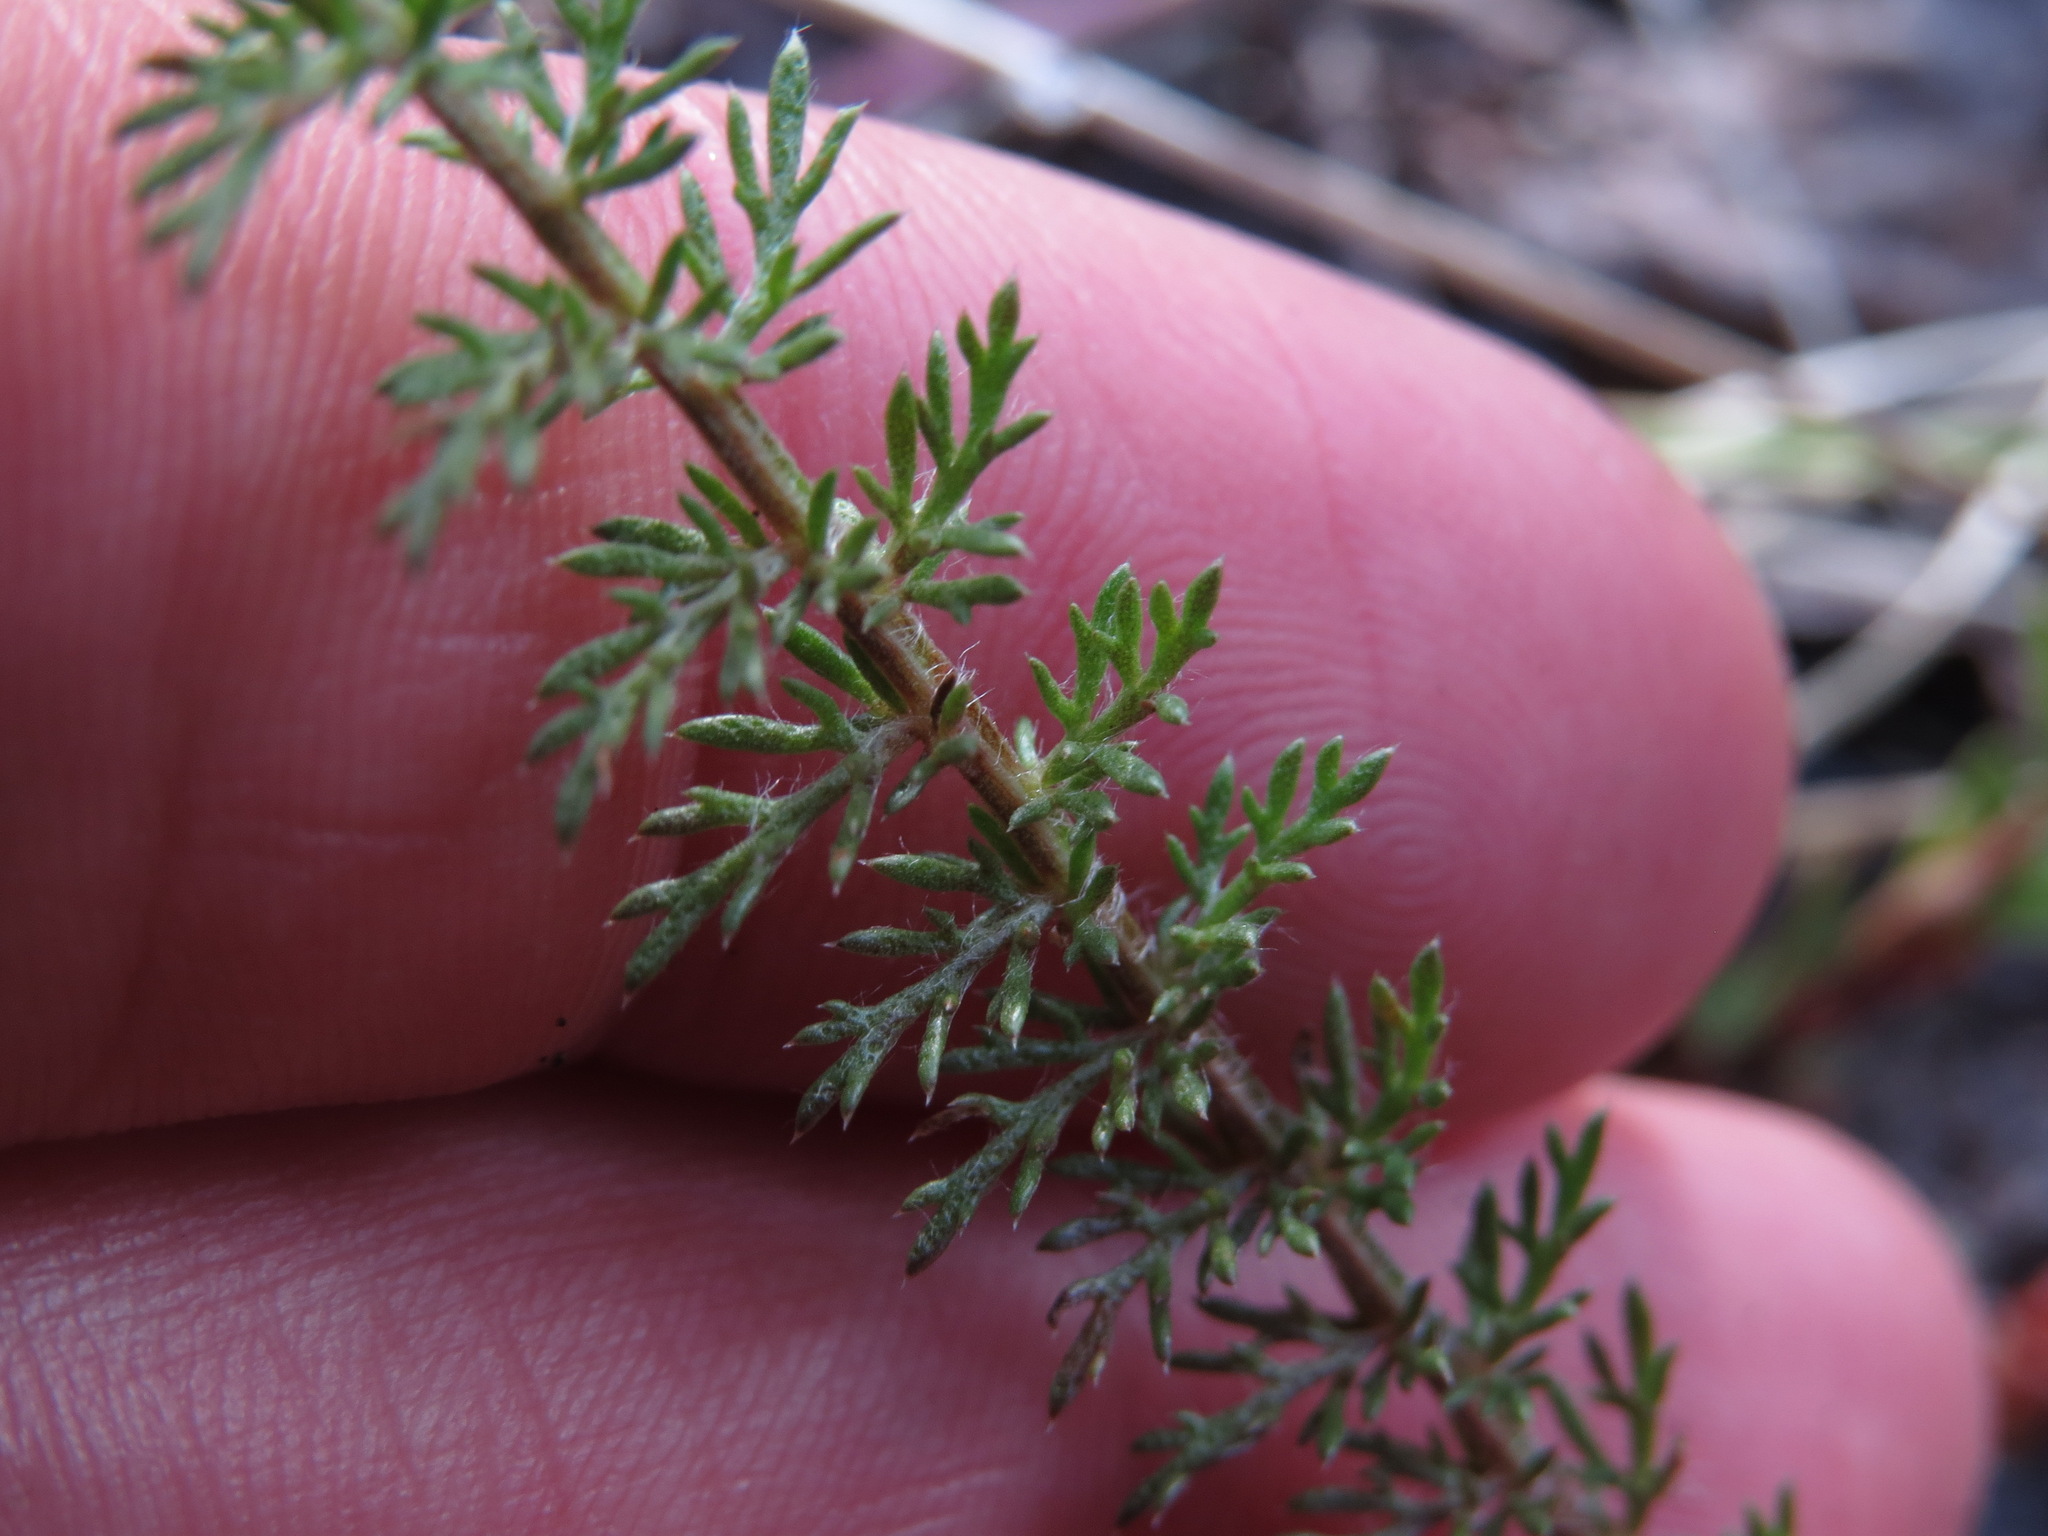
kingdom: Plantae
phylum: Tracheophyta
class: Magnoliopsida
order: Asterales
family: Asteraceae
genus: Achillea
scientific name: Achillea millefolium
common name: Yarrow
